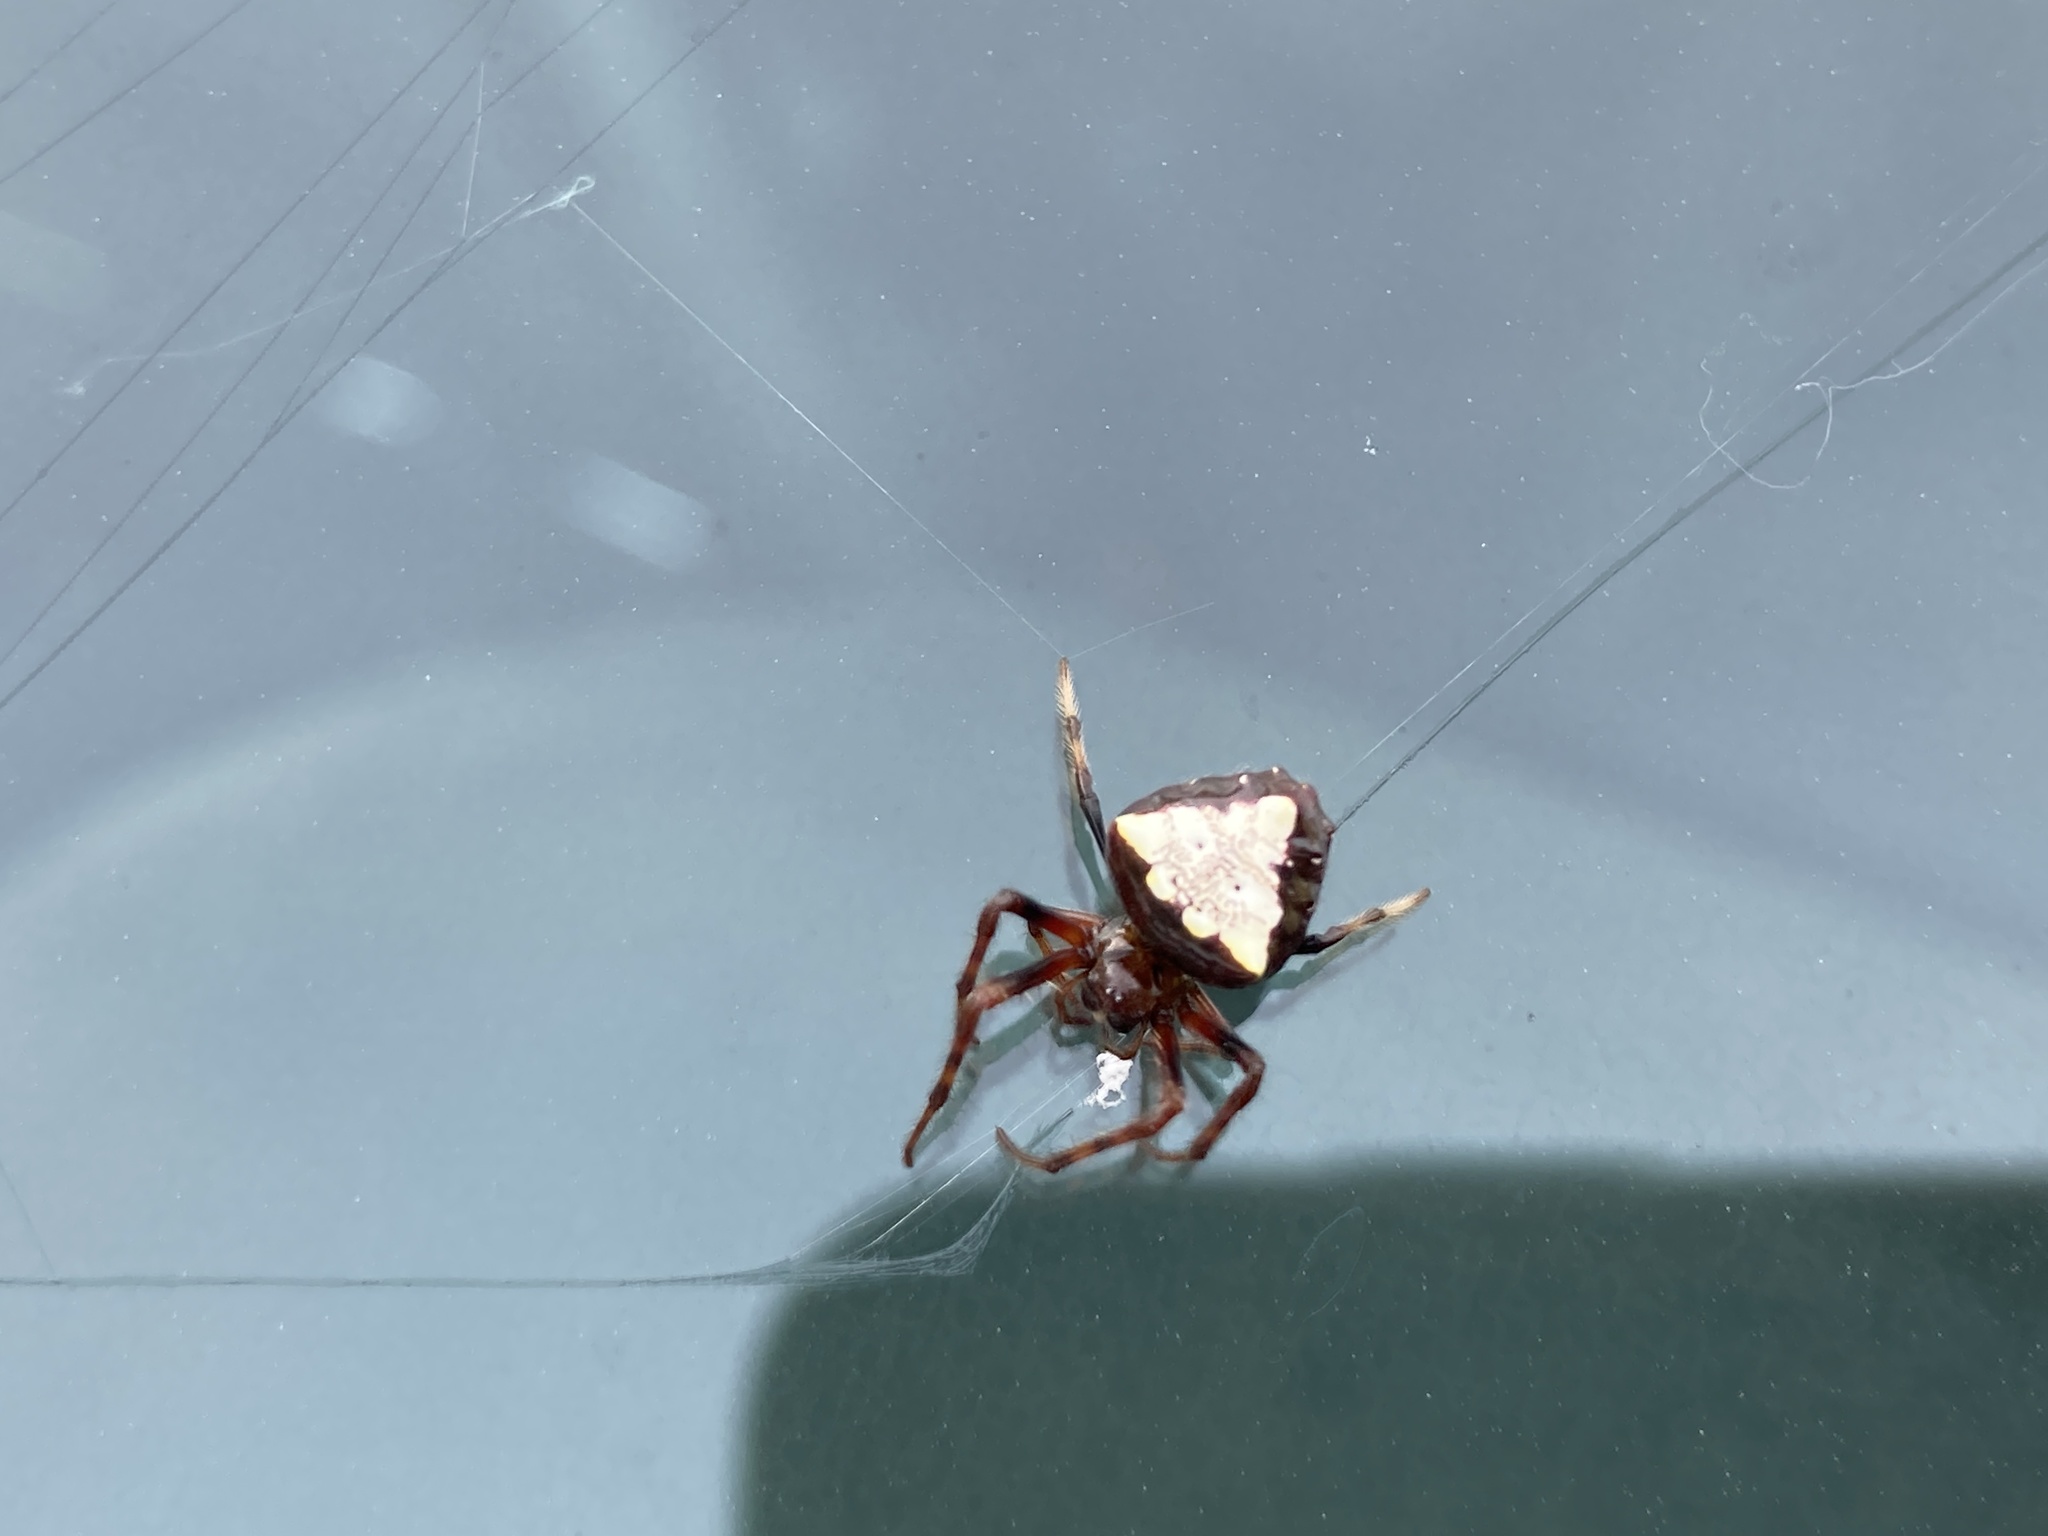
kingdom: Animalia
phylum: Arthropoda
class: Arachnida
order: Araneae
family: Araneidae
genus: Verrucosa
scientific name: Verrucosa arenata
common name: Orb weavers
